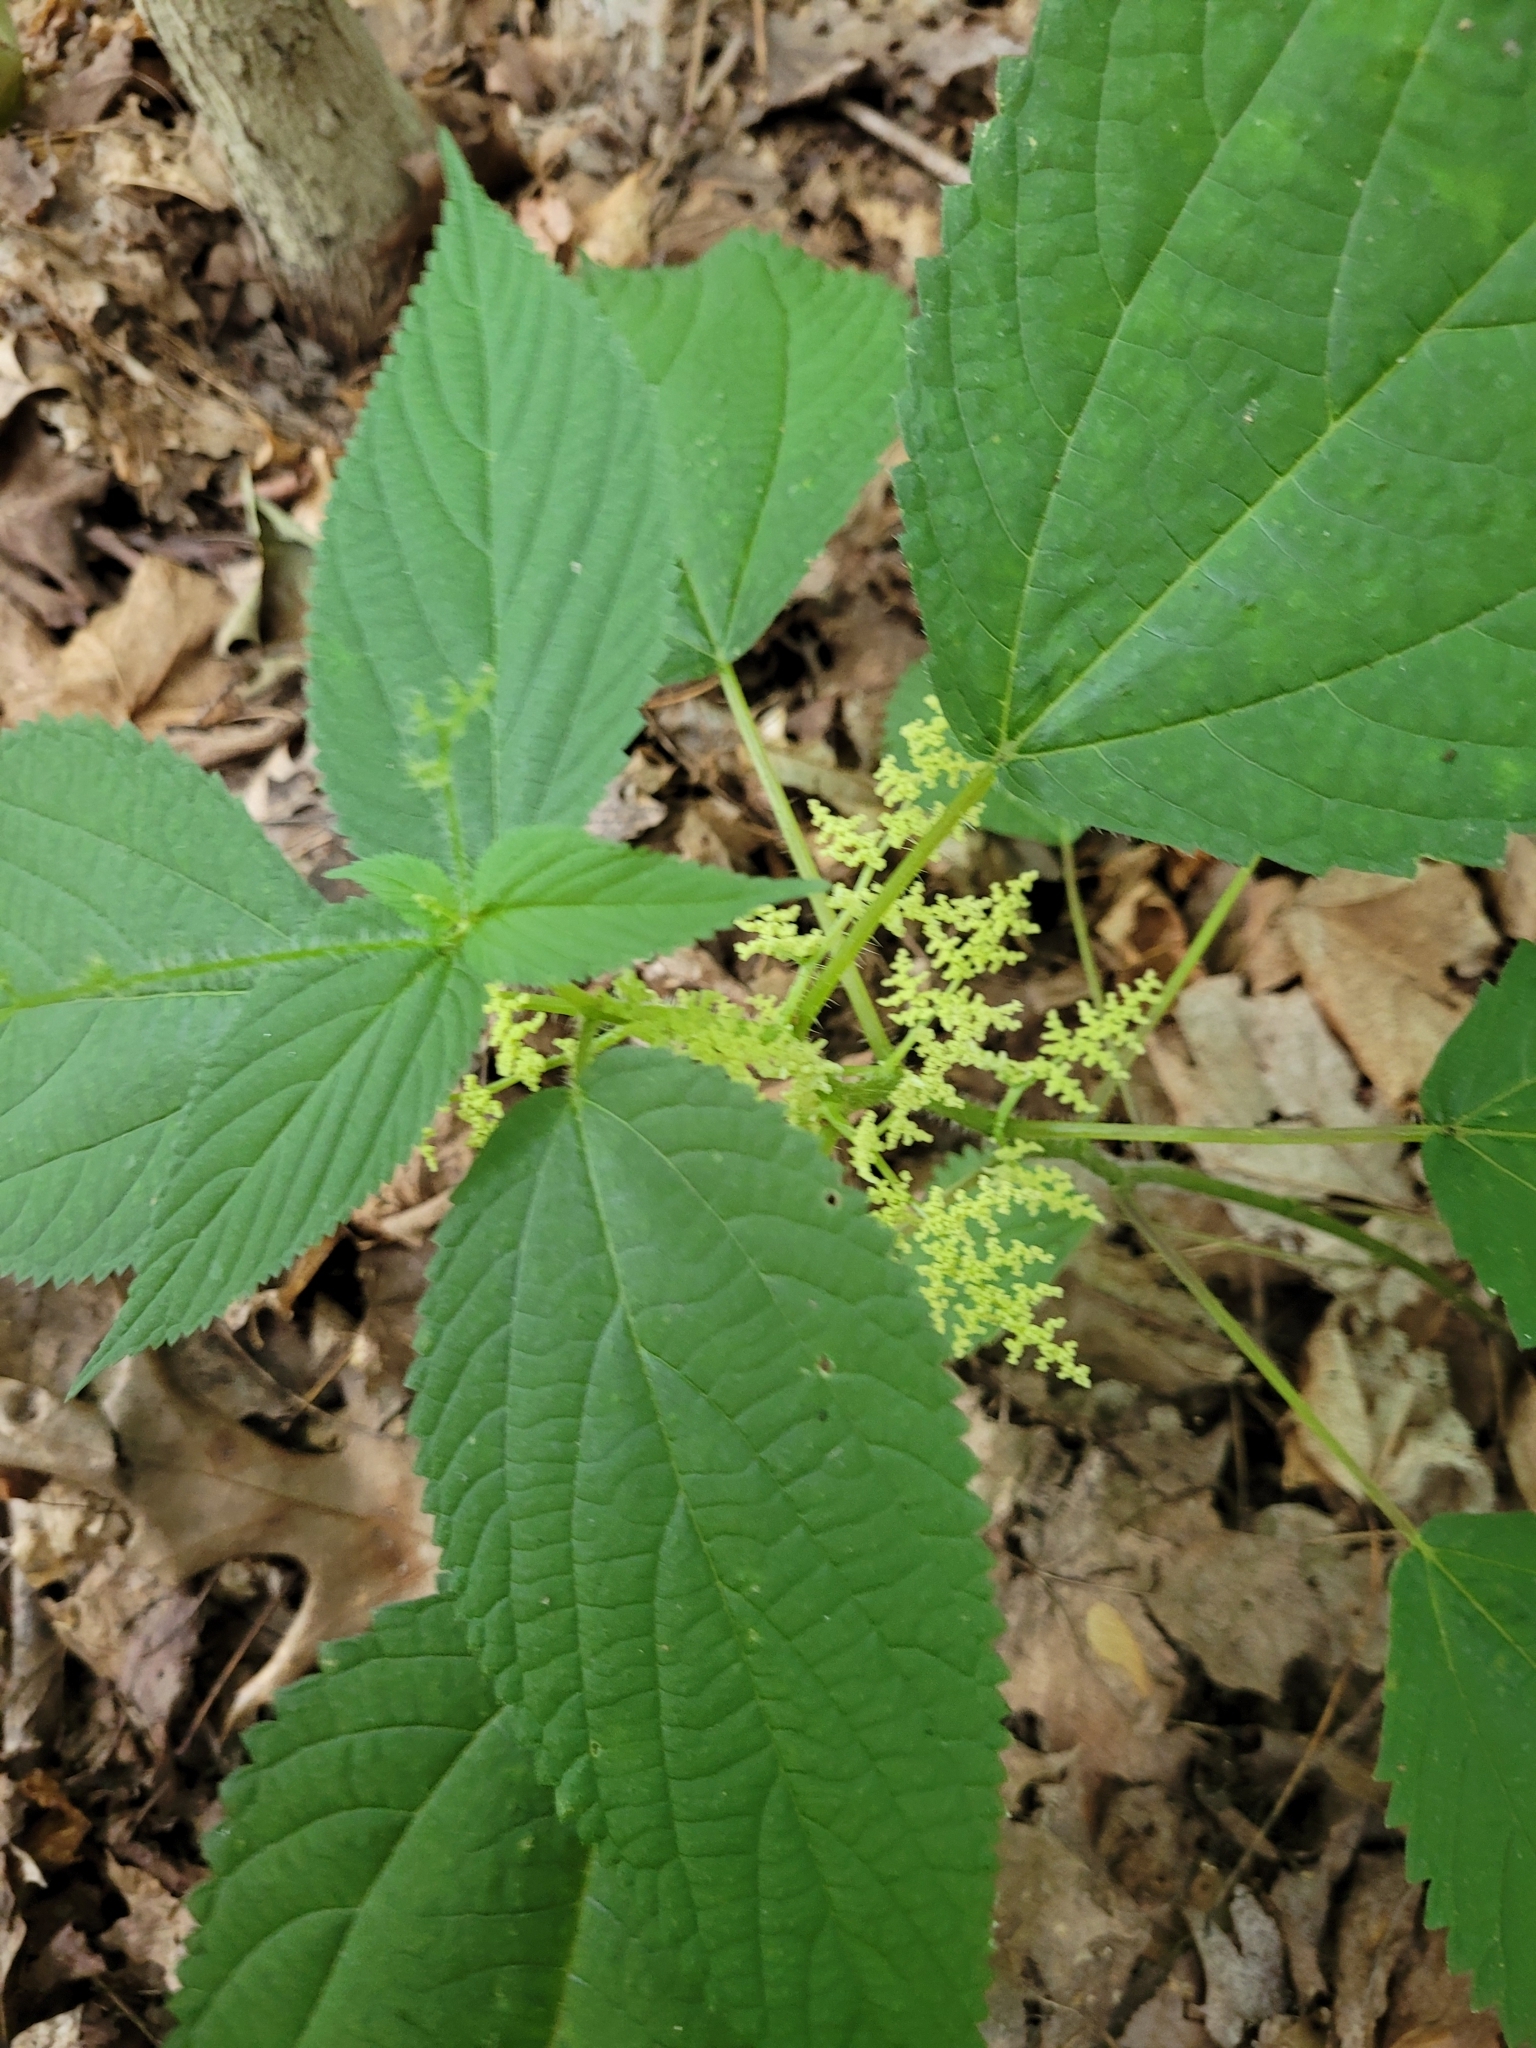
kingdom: Plantae
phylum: Tracheophyta
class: Magnoliopsida
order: Rosales
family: Urticaceae
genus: Laportea
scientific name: Laportea canadensis
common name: Canada nettle
